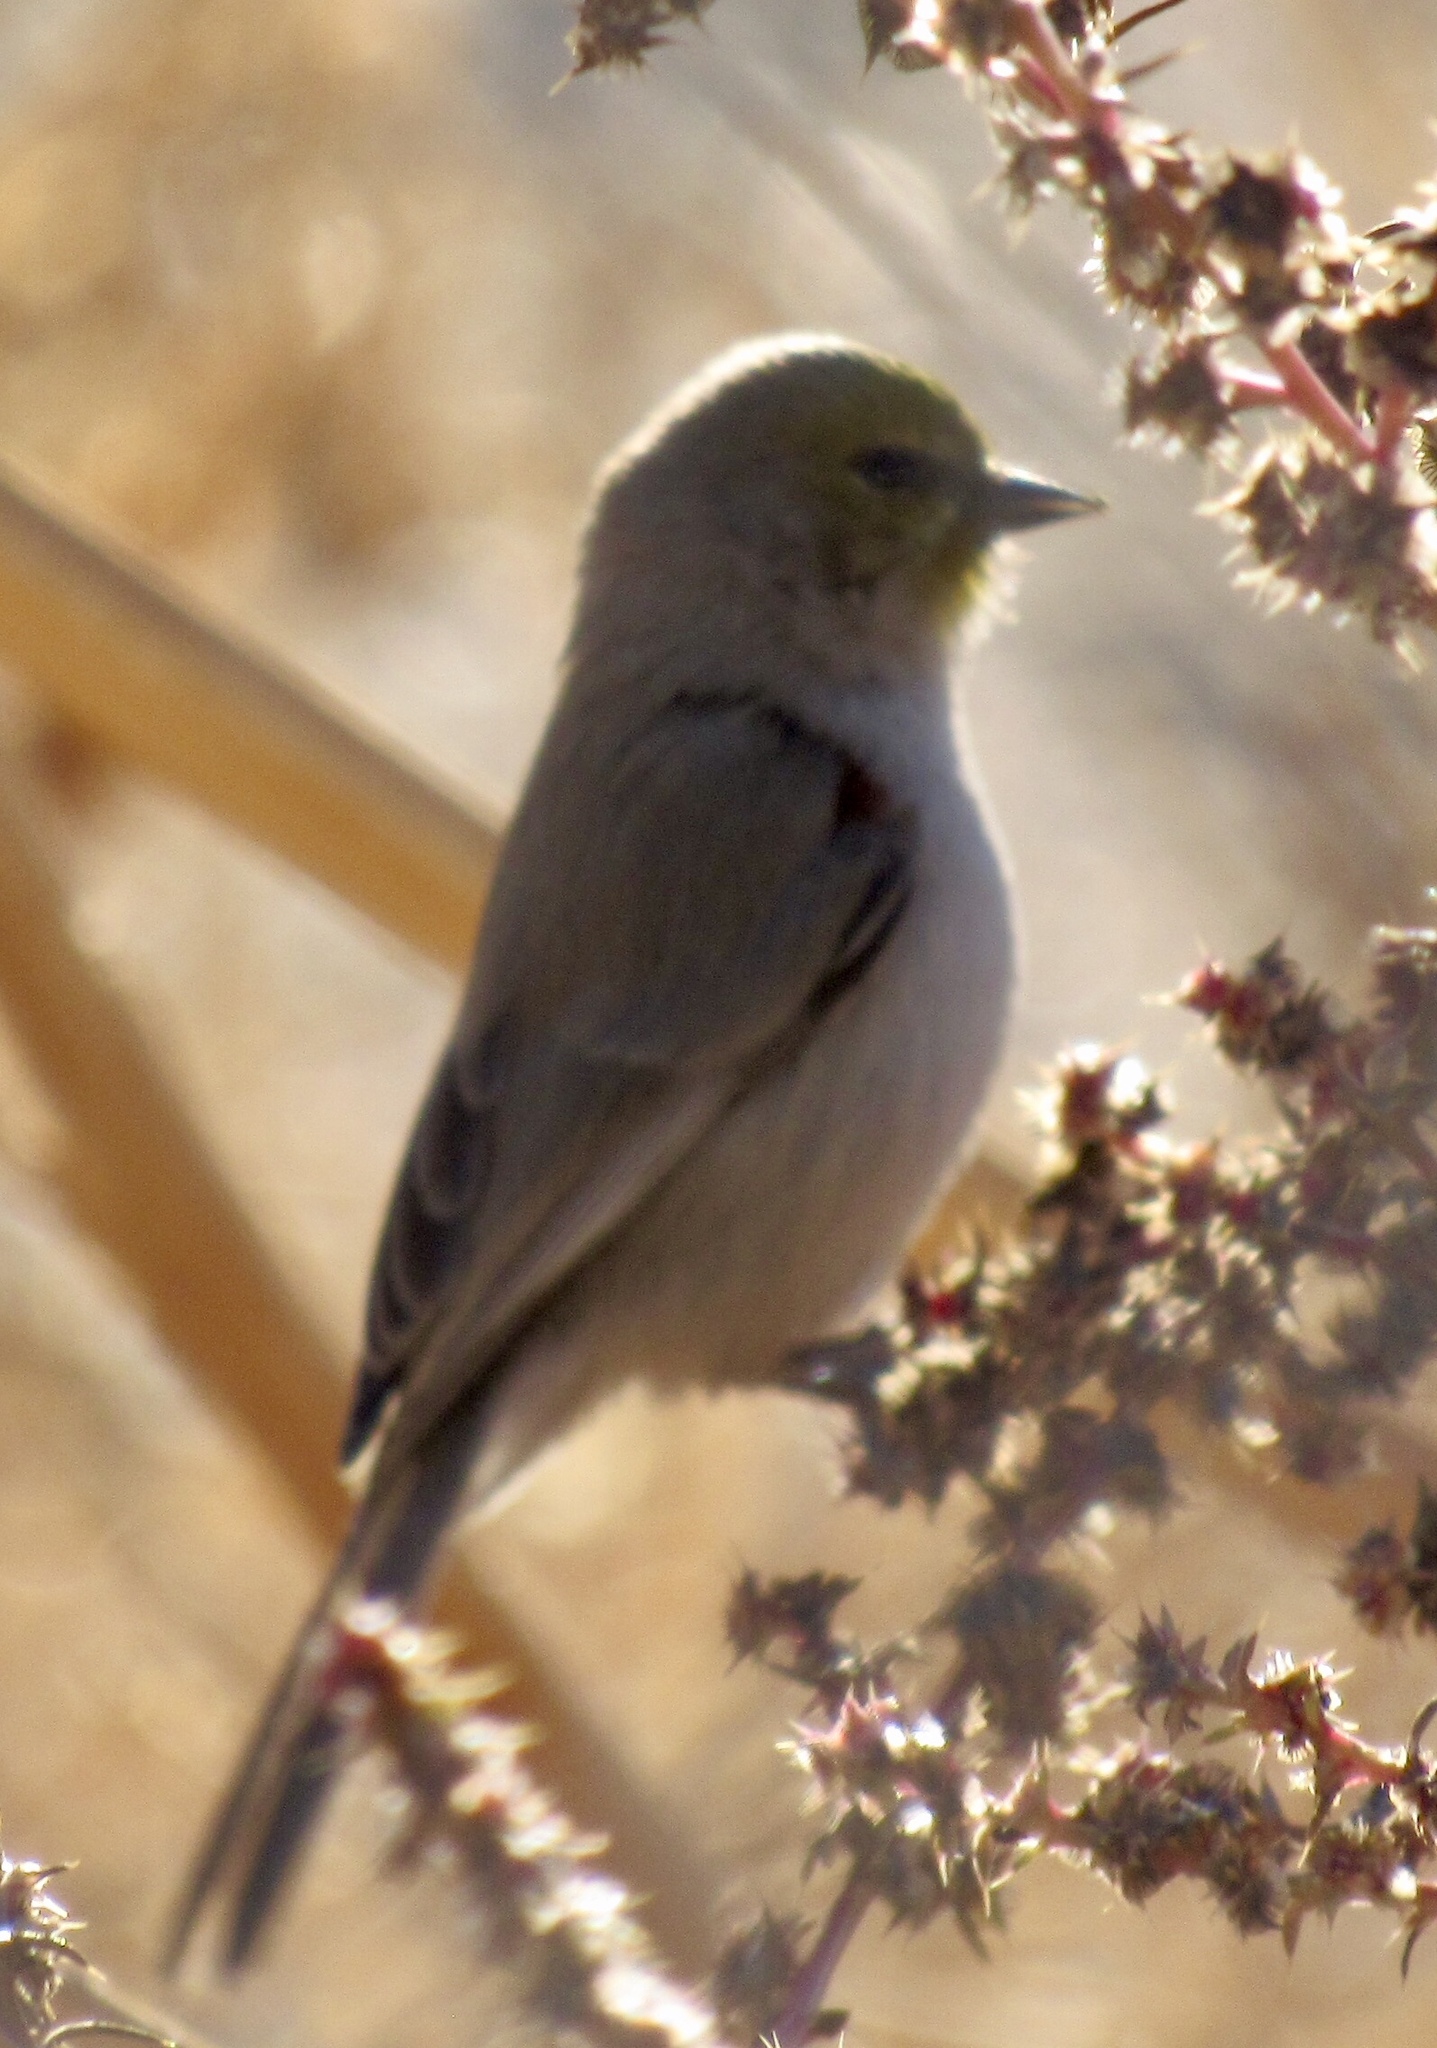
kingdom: Animalia
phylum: Chordata
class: Aves
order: Passeriformes
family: Remizidae
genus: Auriparus
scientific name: Auriparus flaviceps
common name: Verdin
